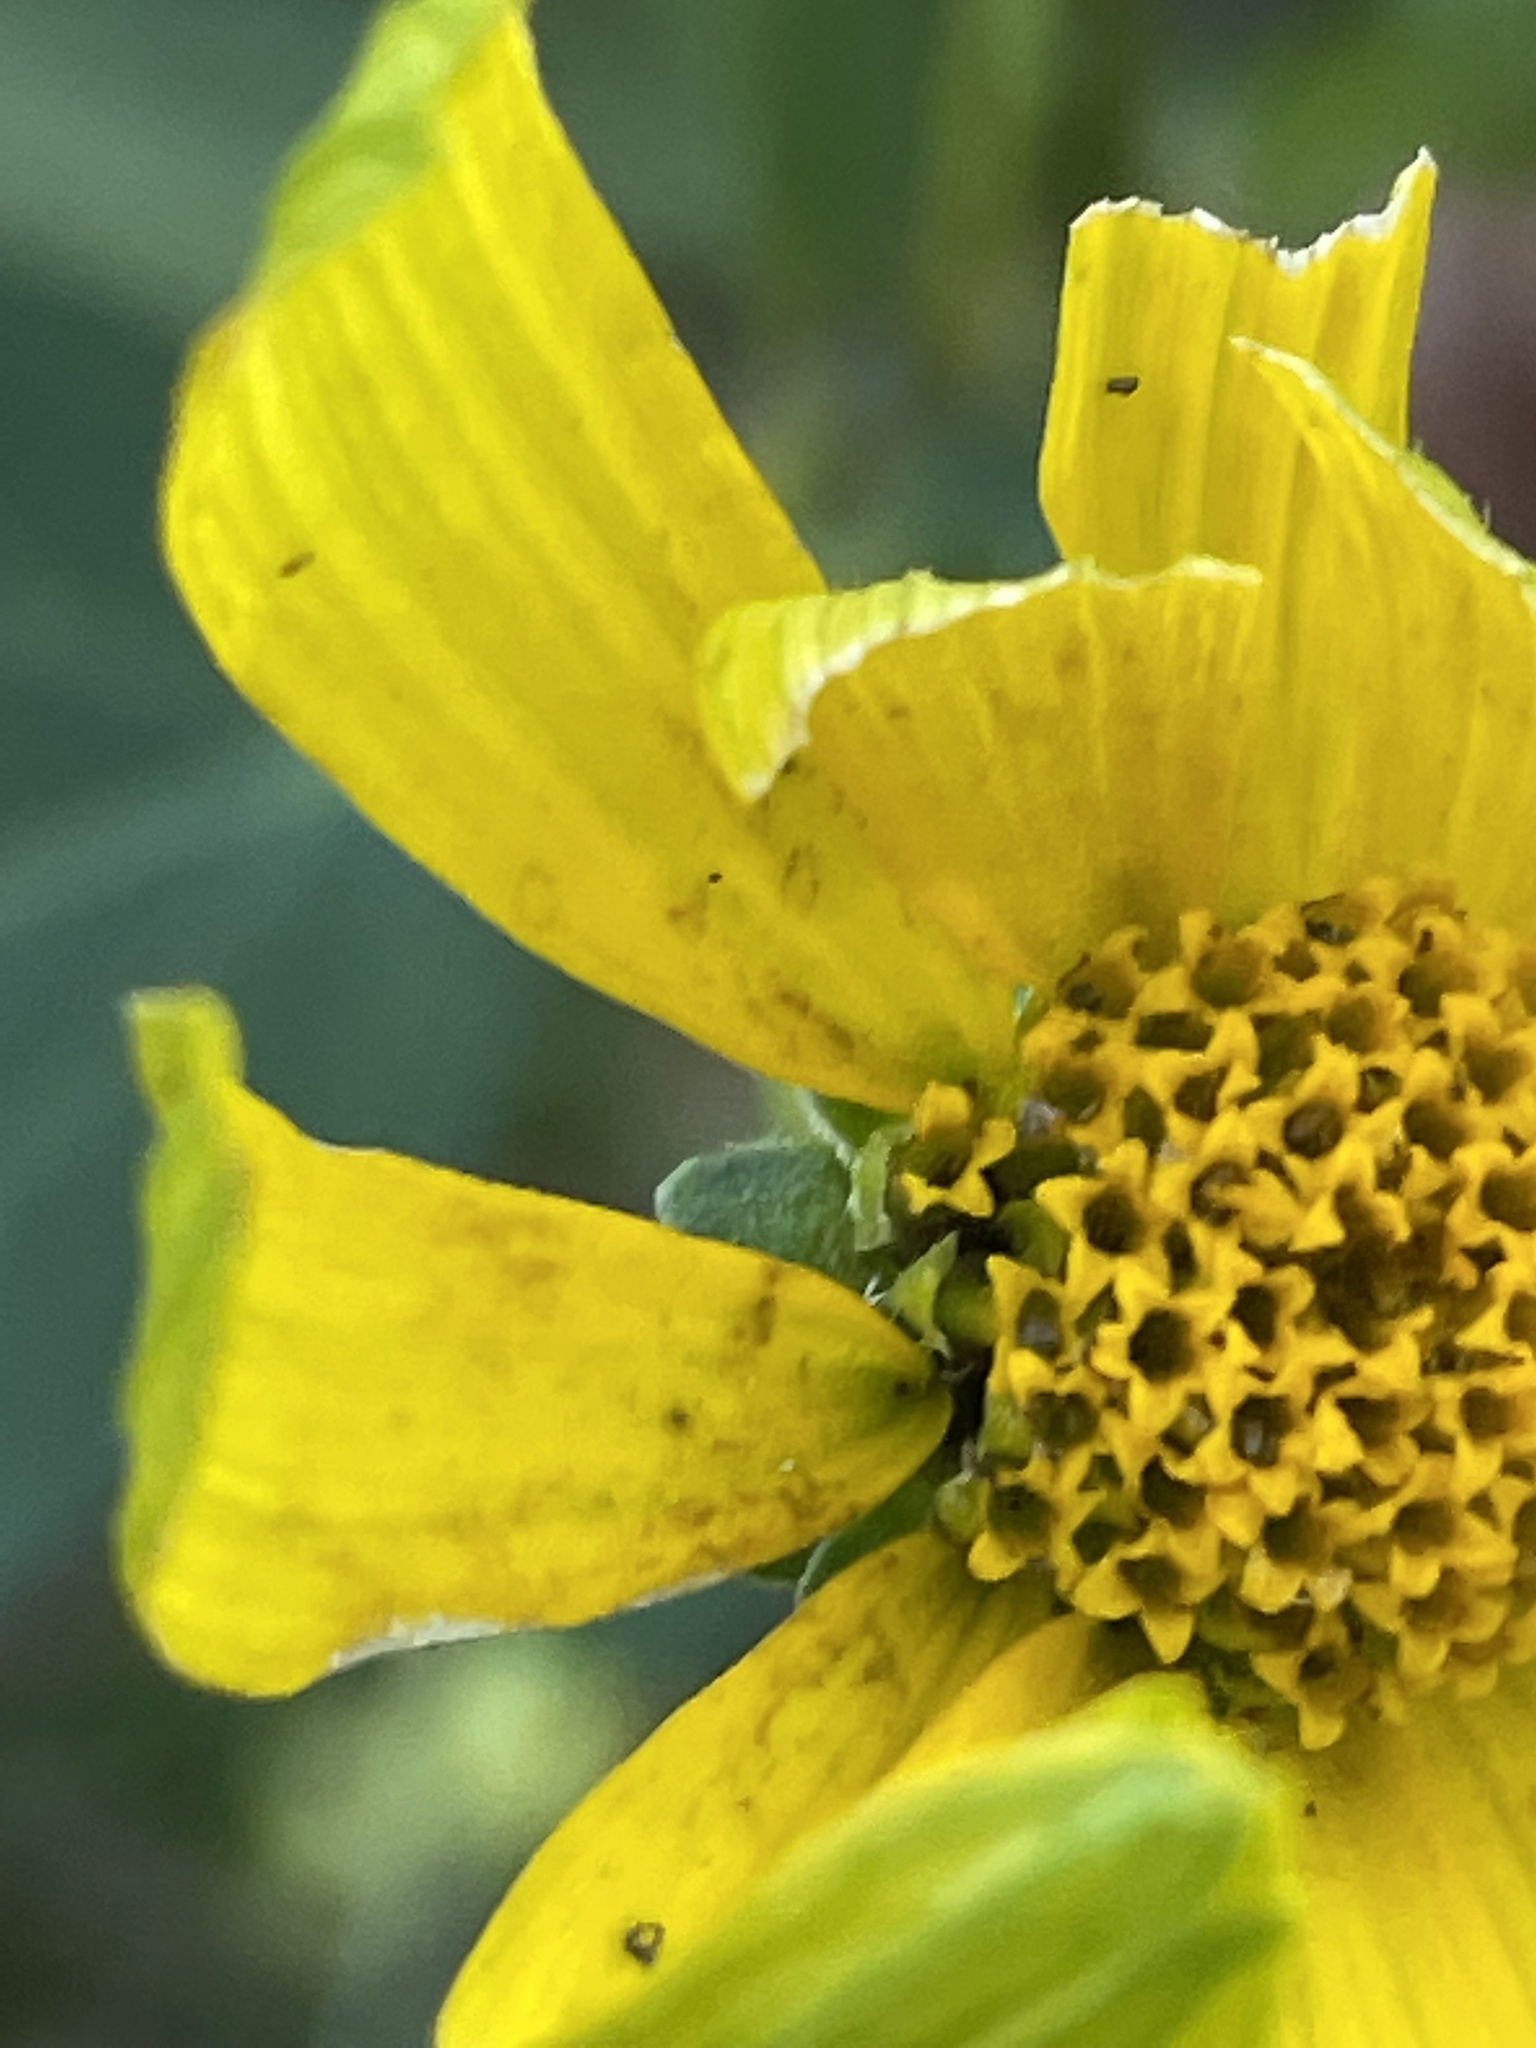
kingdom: Plantae
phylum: Tracheophyta
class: Magnoliopsida
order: Asterales
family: Asteraceae
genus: Heliopsis
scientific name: Heliopsis helianthoides
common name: False sunflower
